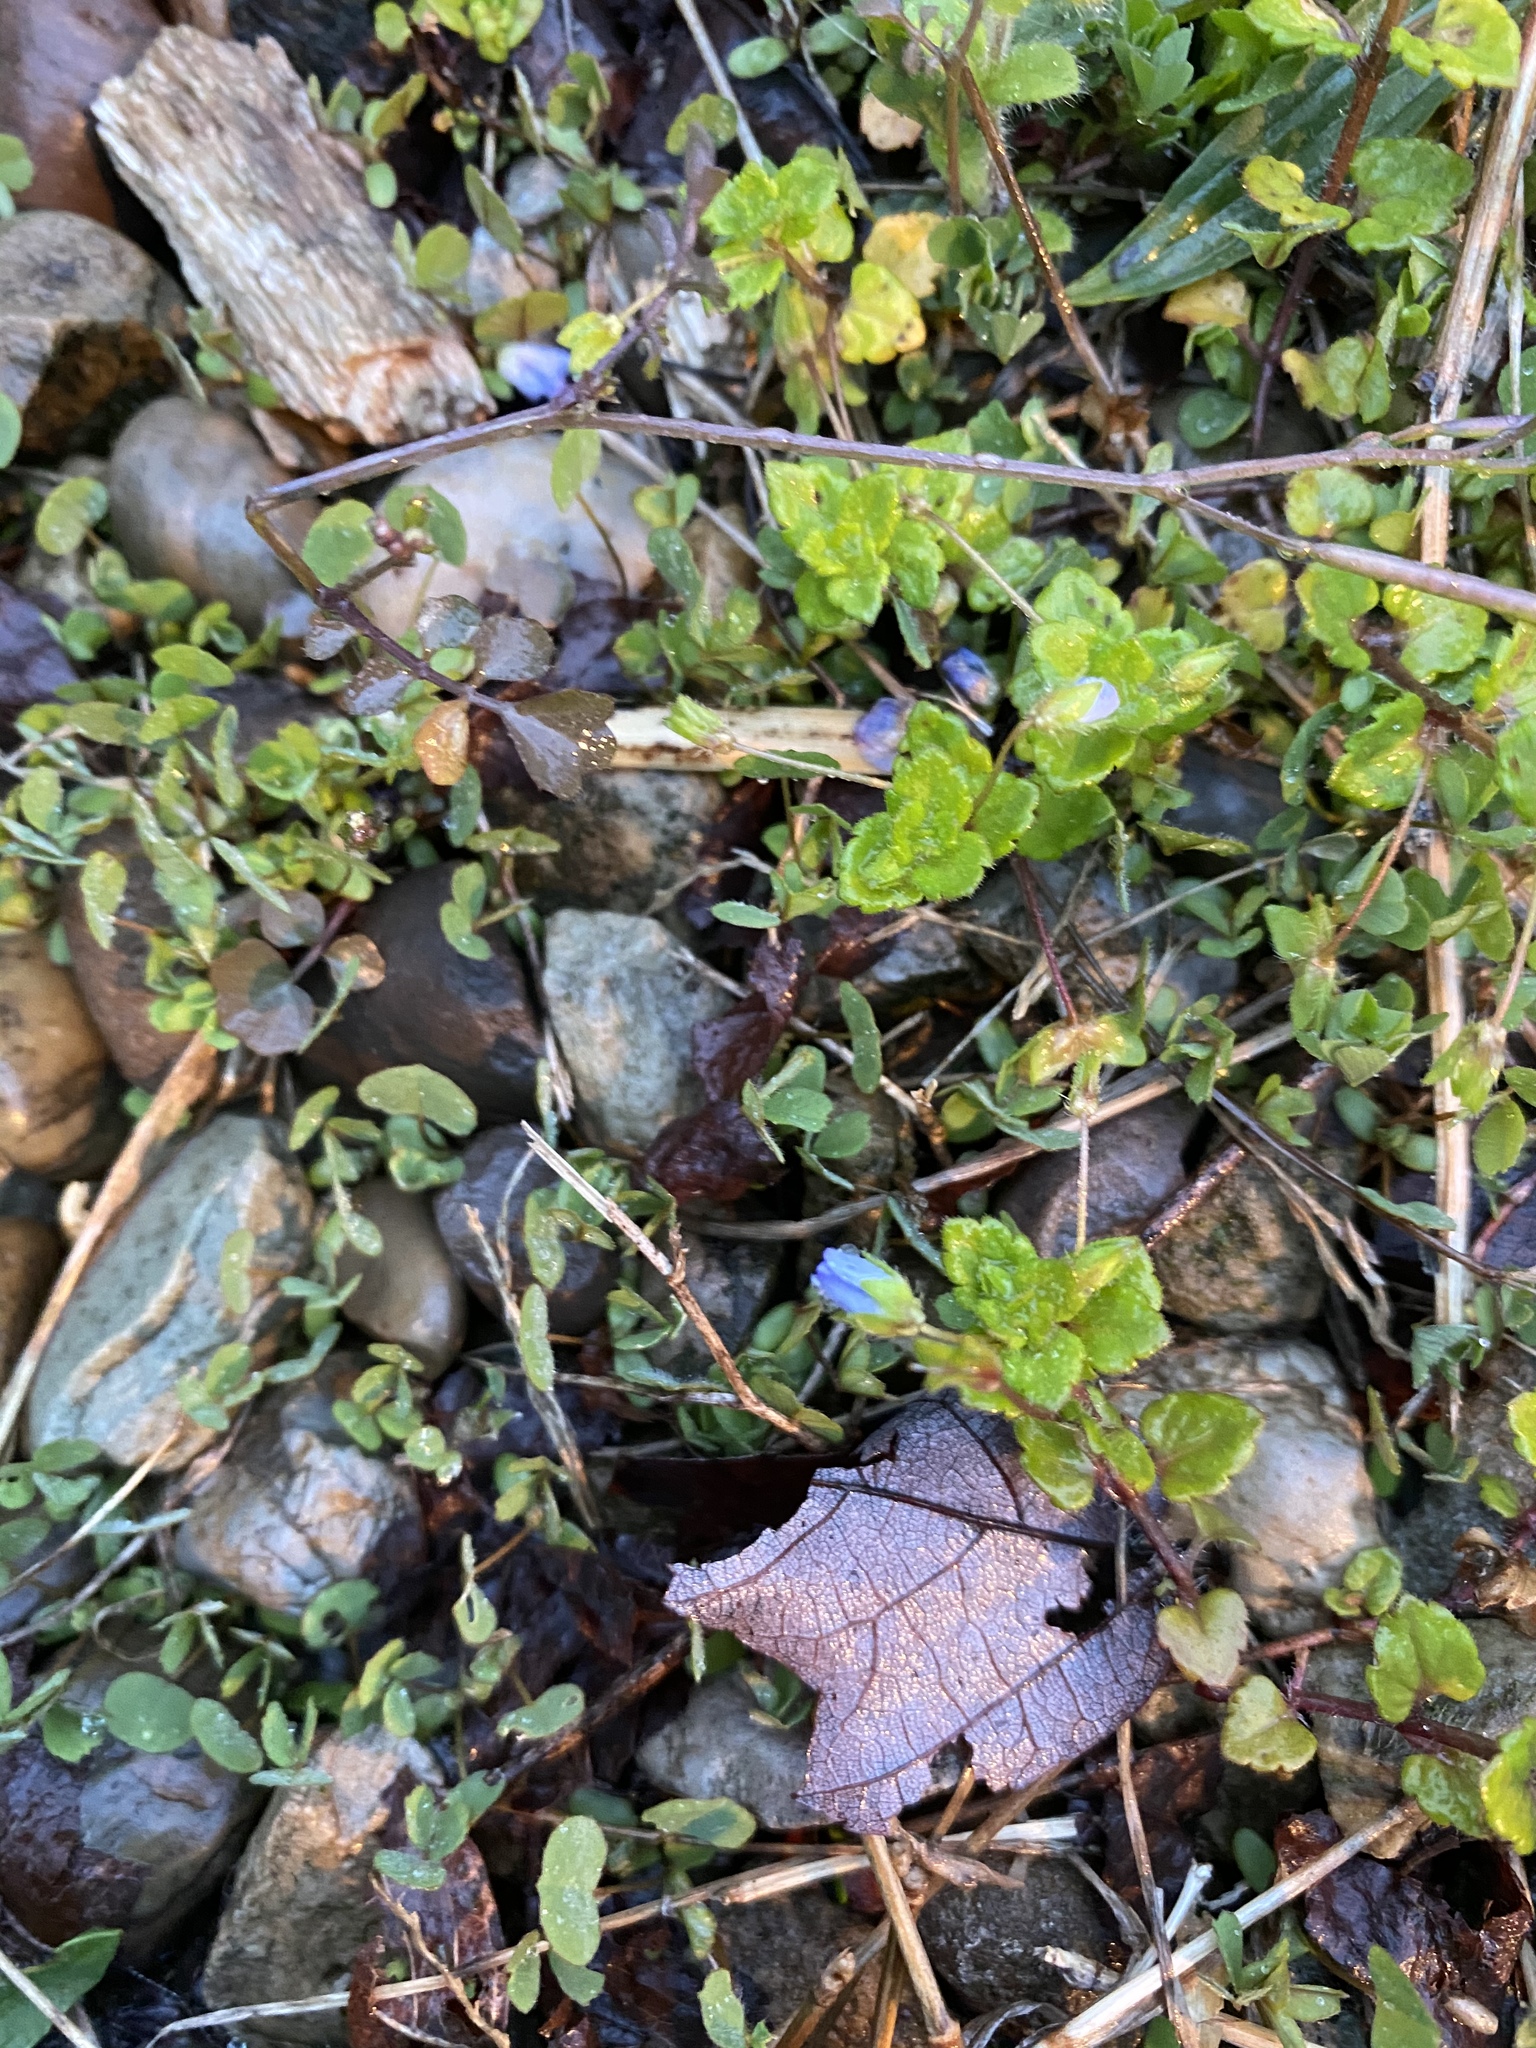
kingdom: Plantae
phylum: Tracheophyta
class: Magnoliopsida
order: Lamiales
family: Plantaginaceae
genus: Veronica
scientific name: Veronica persica
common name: Common field-speedwell
